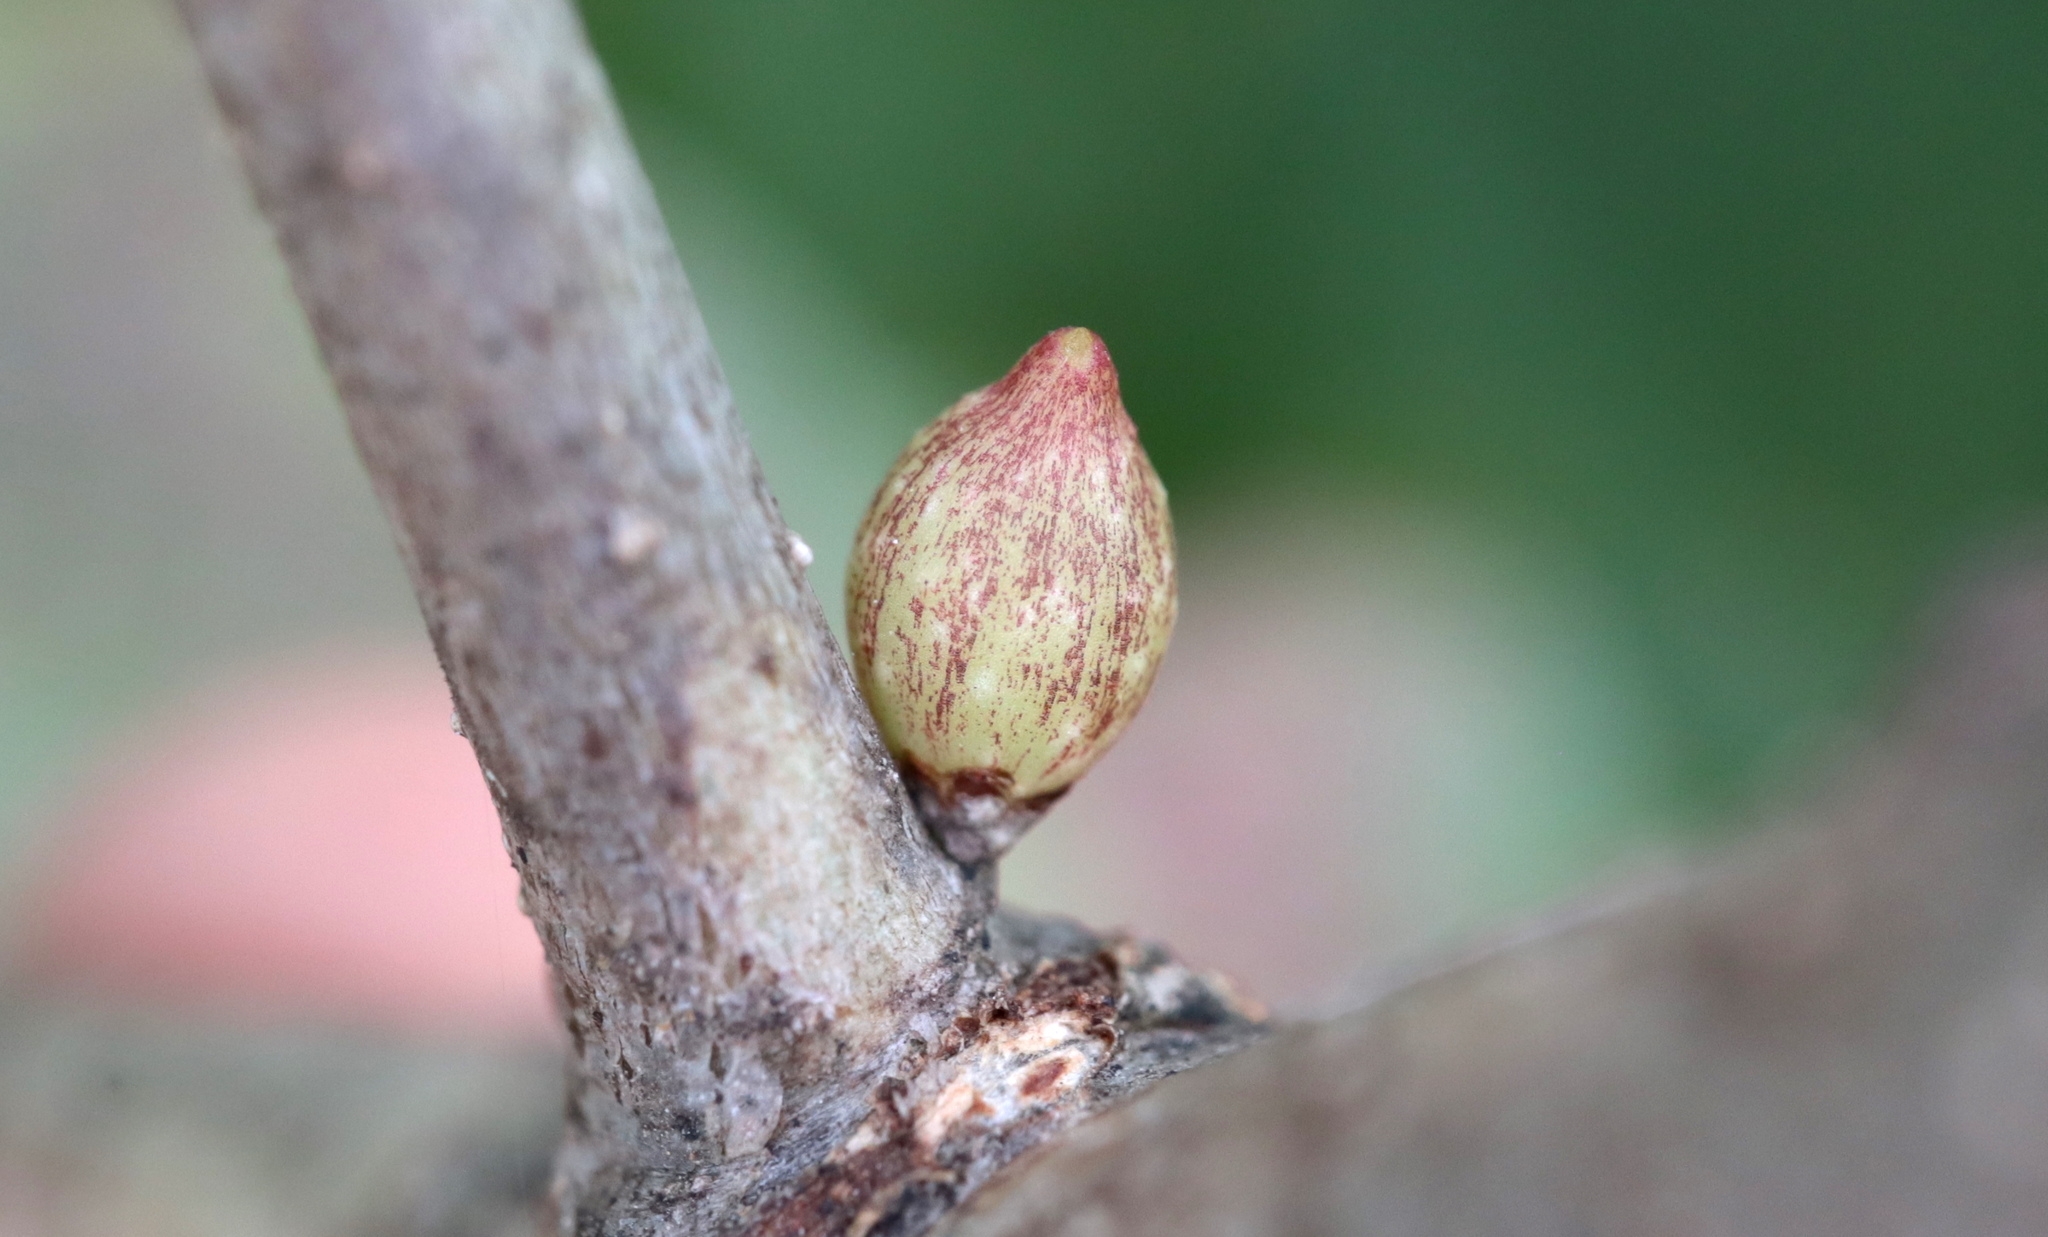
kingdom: Animalia
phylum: Arthropoda
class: Insecta
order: Hymenoptera
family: Cynipidae
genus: Andricus
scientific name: Andricus
